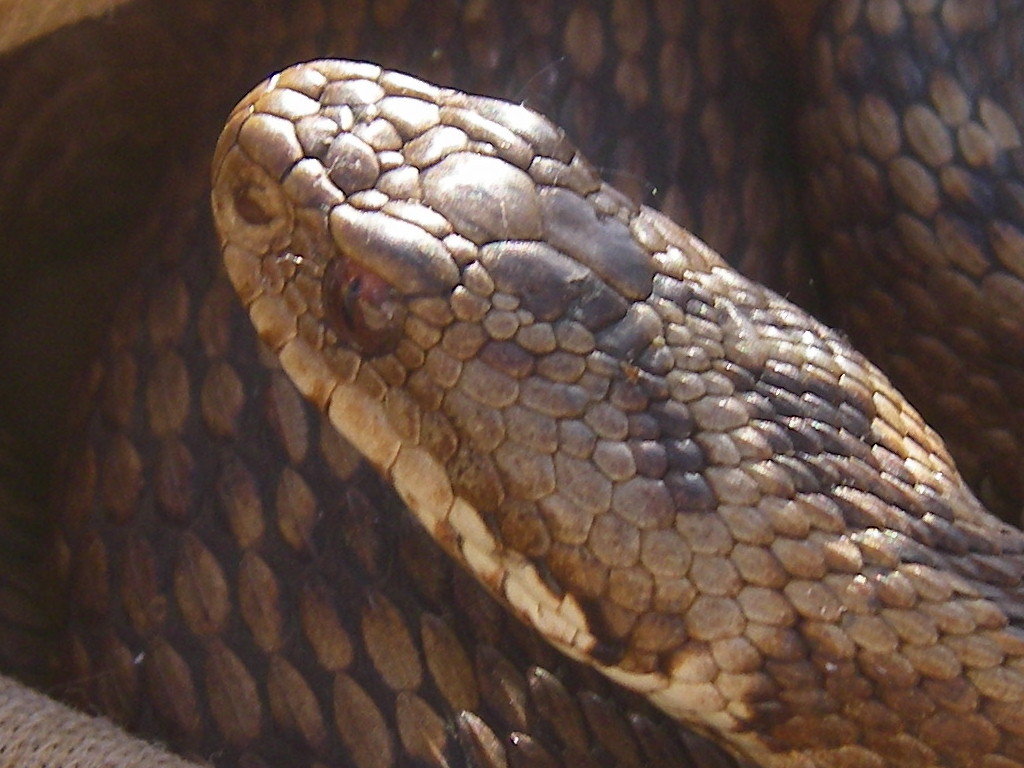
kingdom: Animalia
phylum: Chordata
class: Squamata
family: Viperidae
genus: Vipera
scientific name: Vipera berus
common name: Adder
